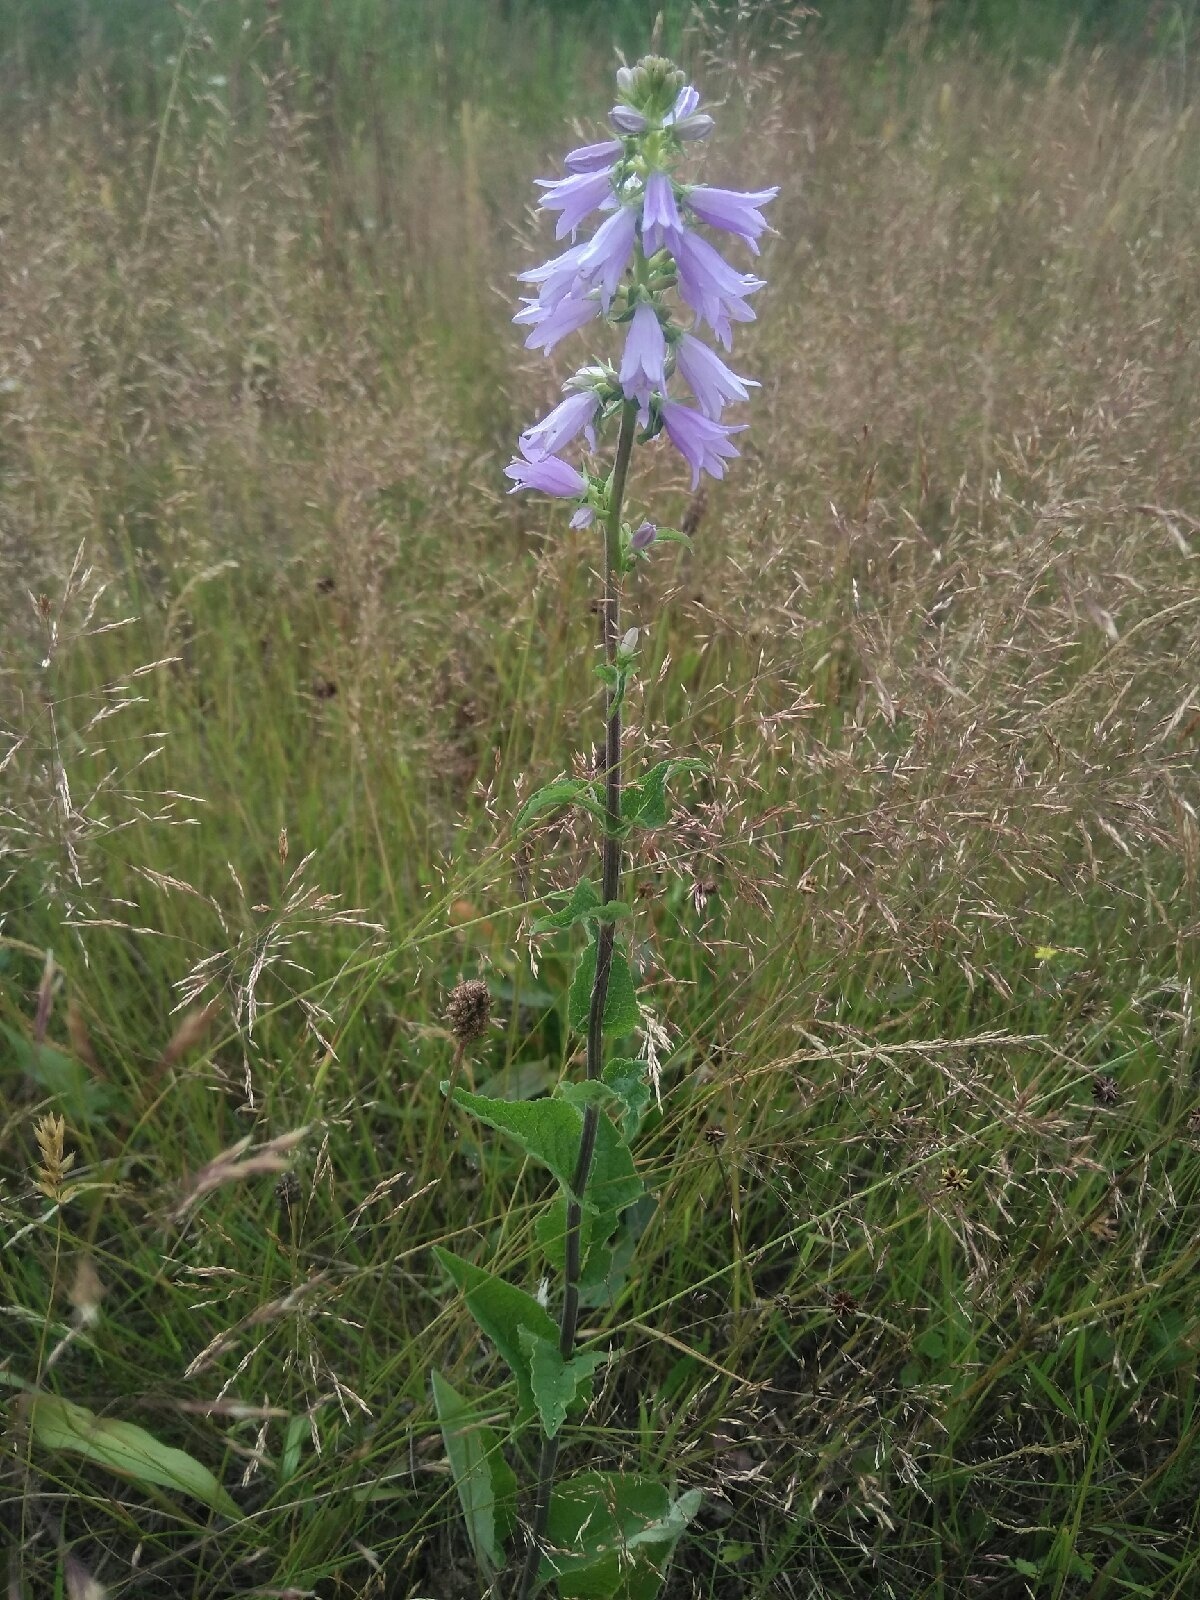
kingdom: Plantae
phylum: Tracheophyta
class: Magnoliopsida
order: Asterales
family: Campanulaceae
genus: Campanula
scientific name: Campanula bononiensis
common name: Pale bellflower
